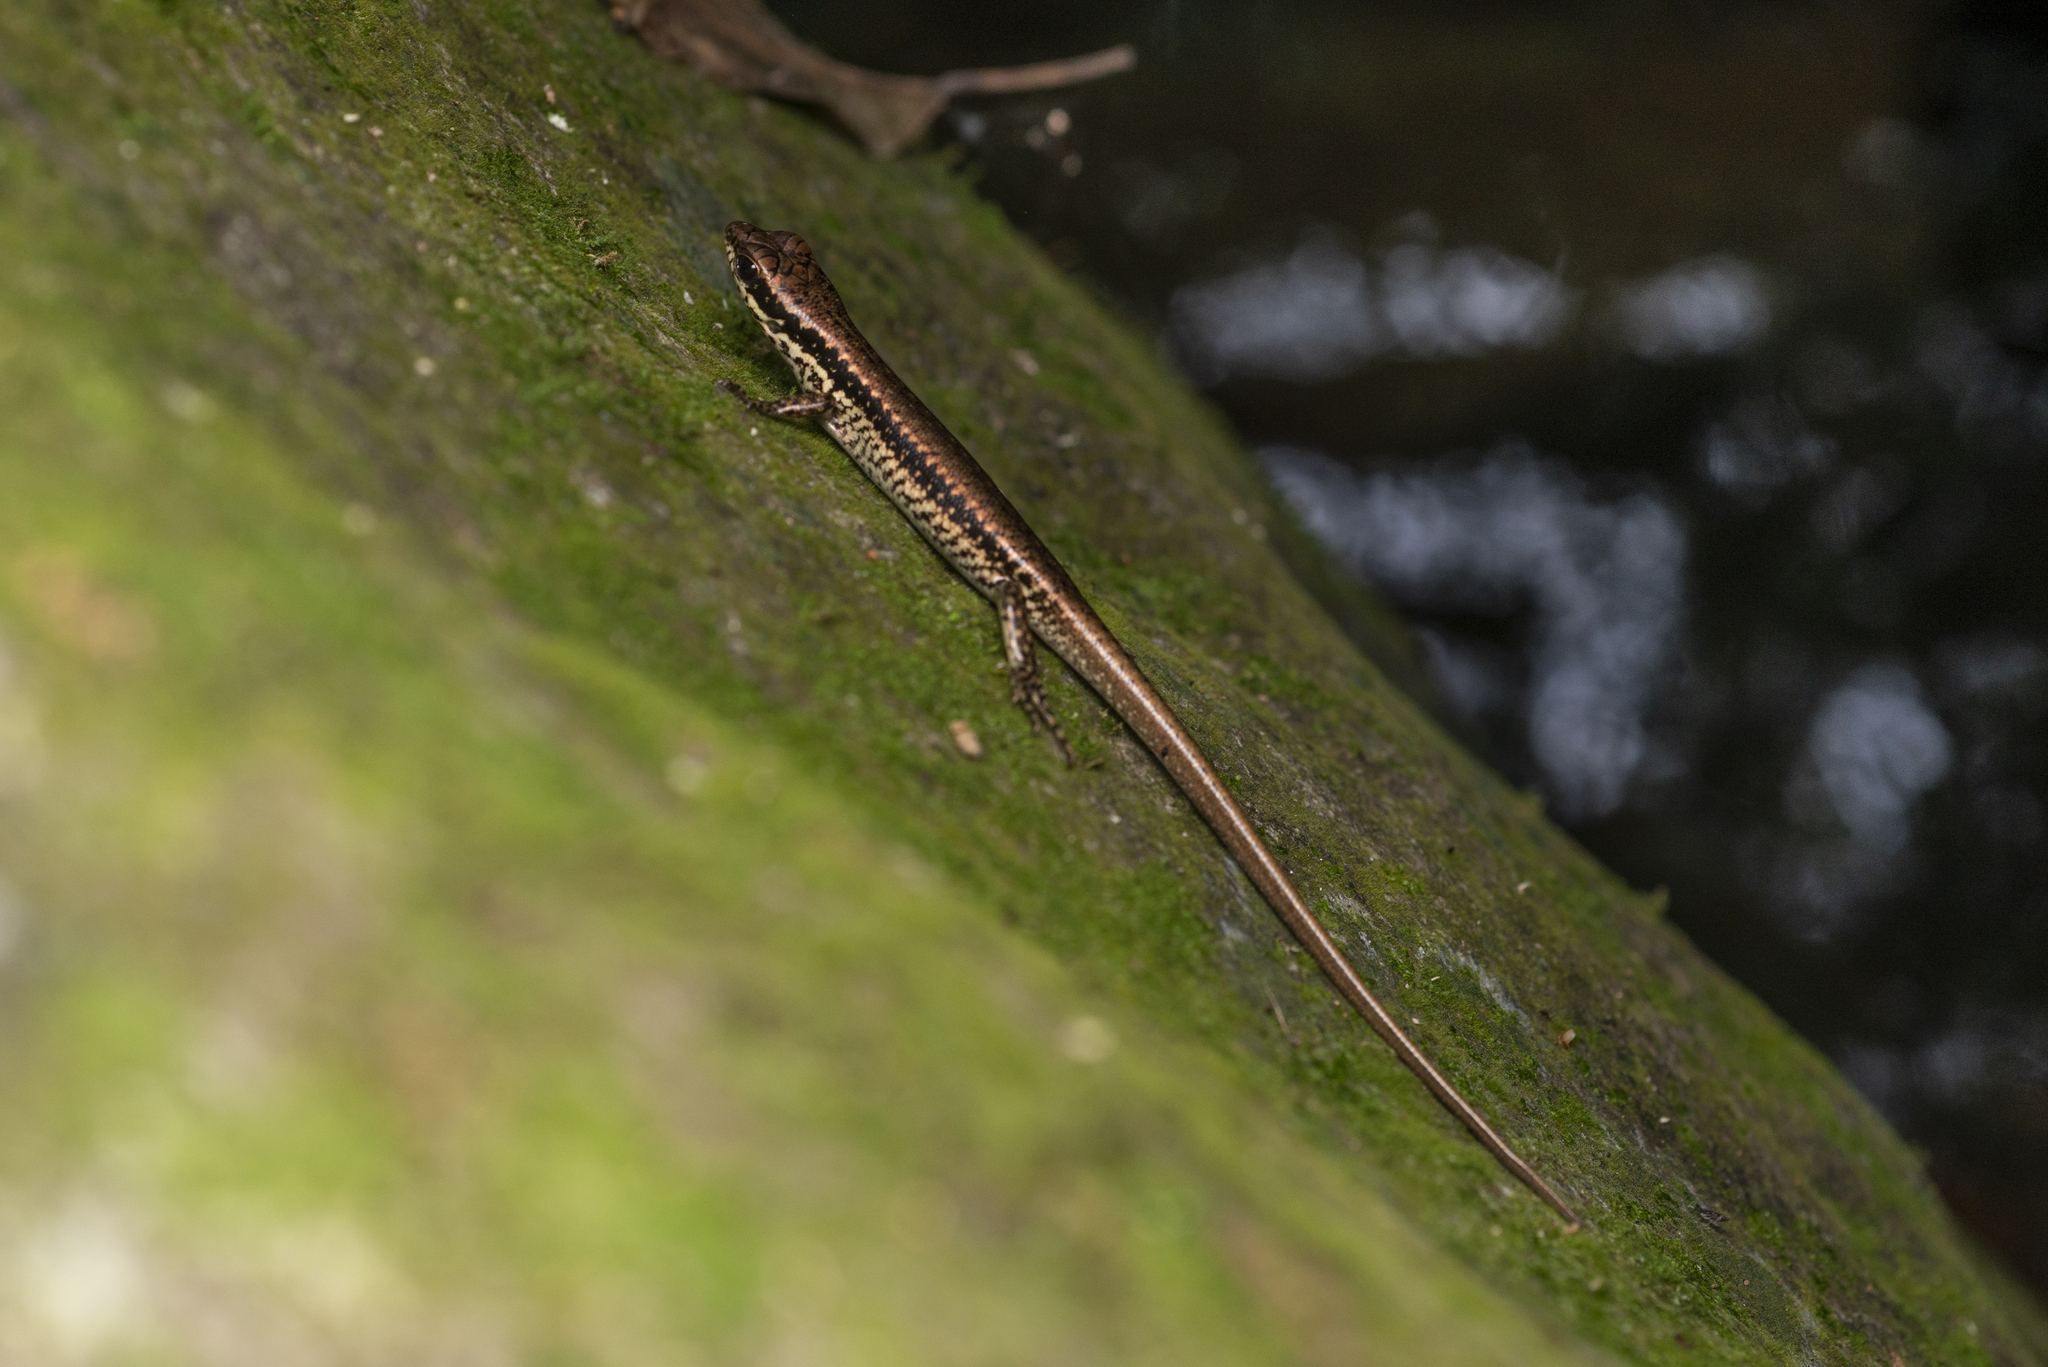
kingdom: Animalia
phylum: Chordata
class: Squamata
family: Scincidae
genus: Sphenomorphus
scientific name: Sphenomorphus incognitus
